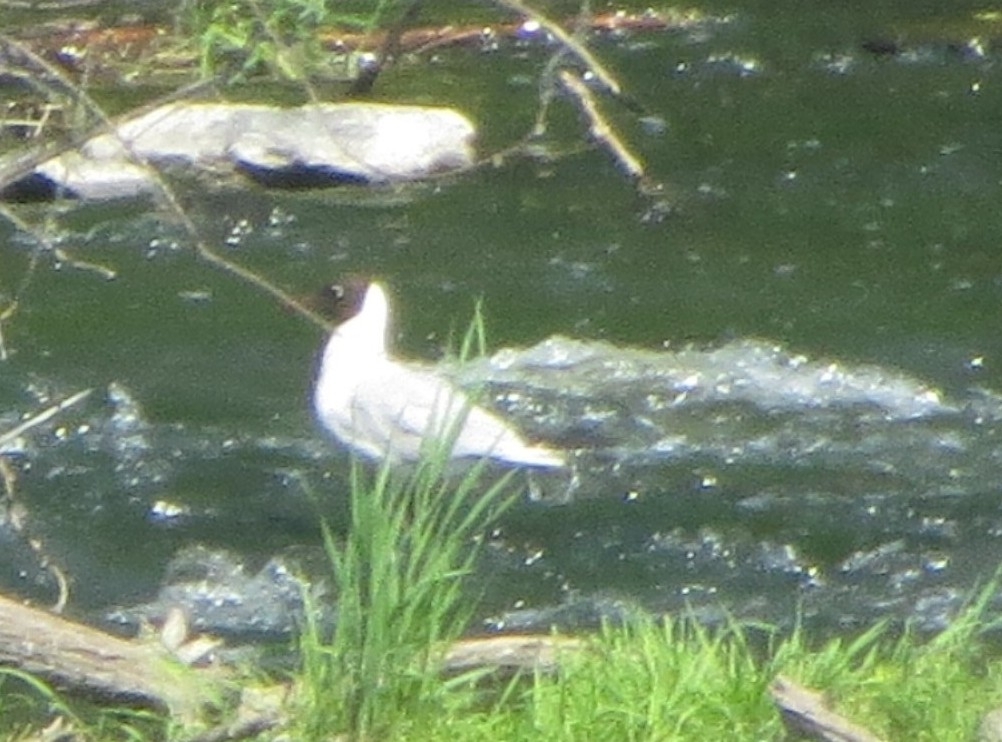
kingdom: Animalia
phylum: Chordata
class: Aves
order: Charadriiformes
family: Laridae
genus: Chroicocephalus
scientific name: Chroicocephalus ridibundus
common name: Black-headed gull
